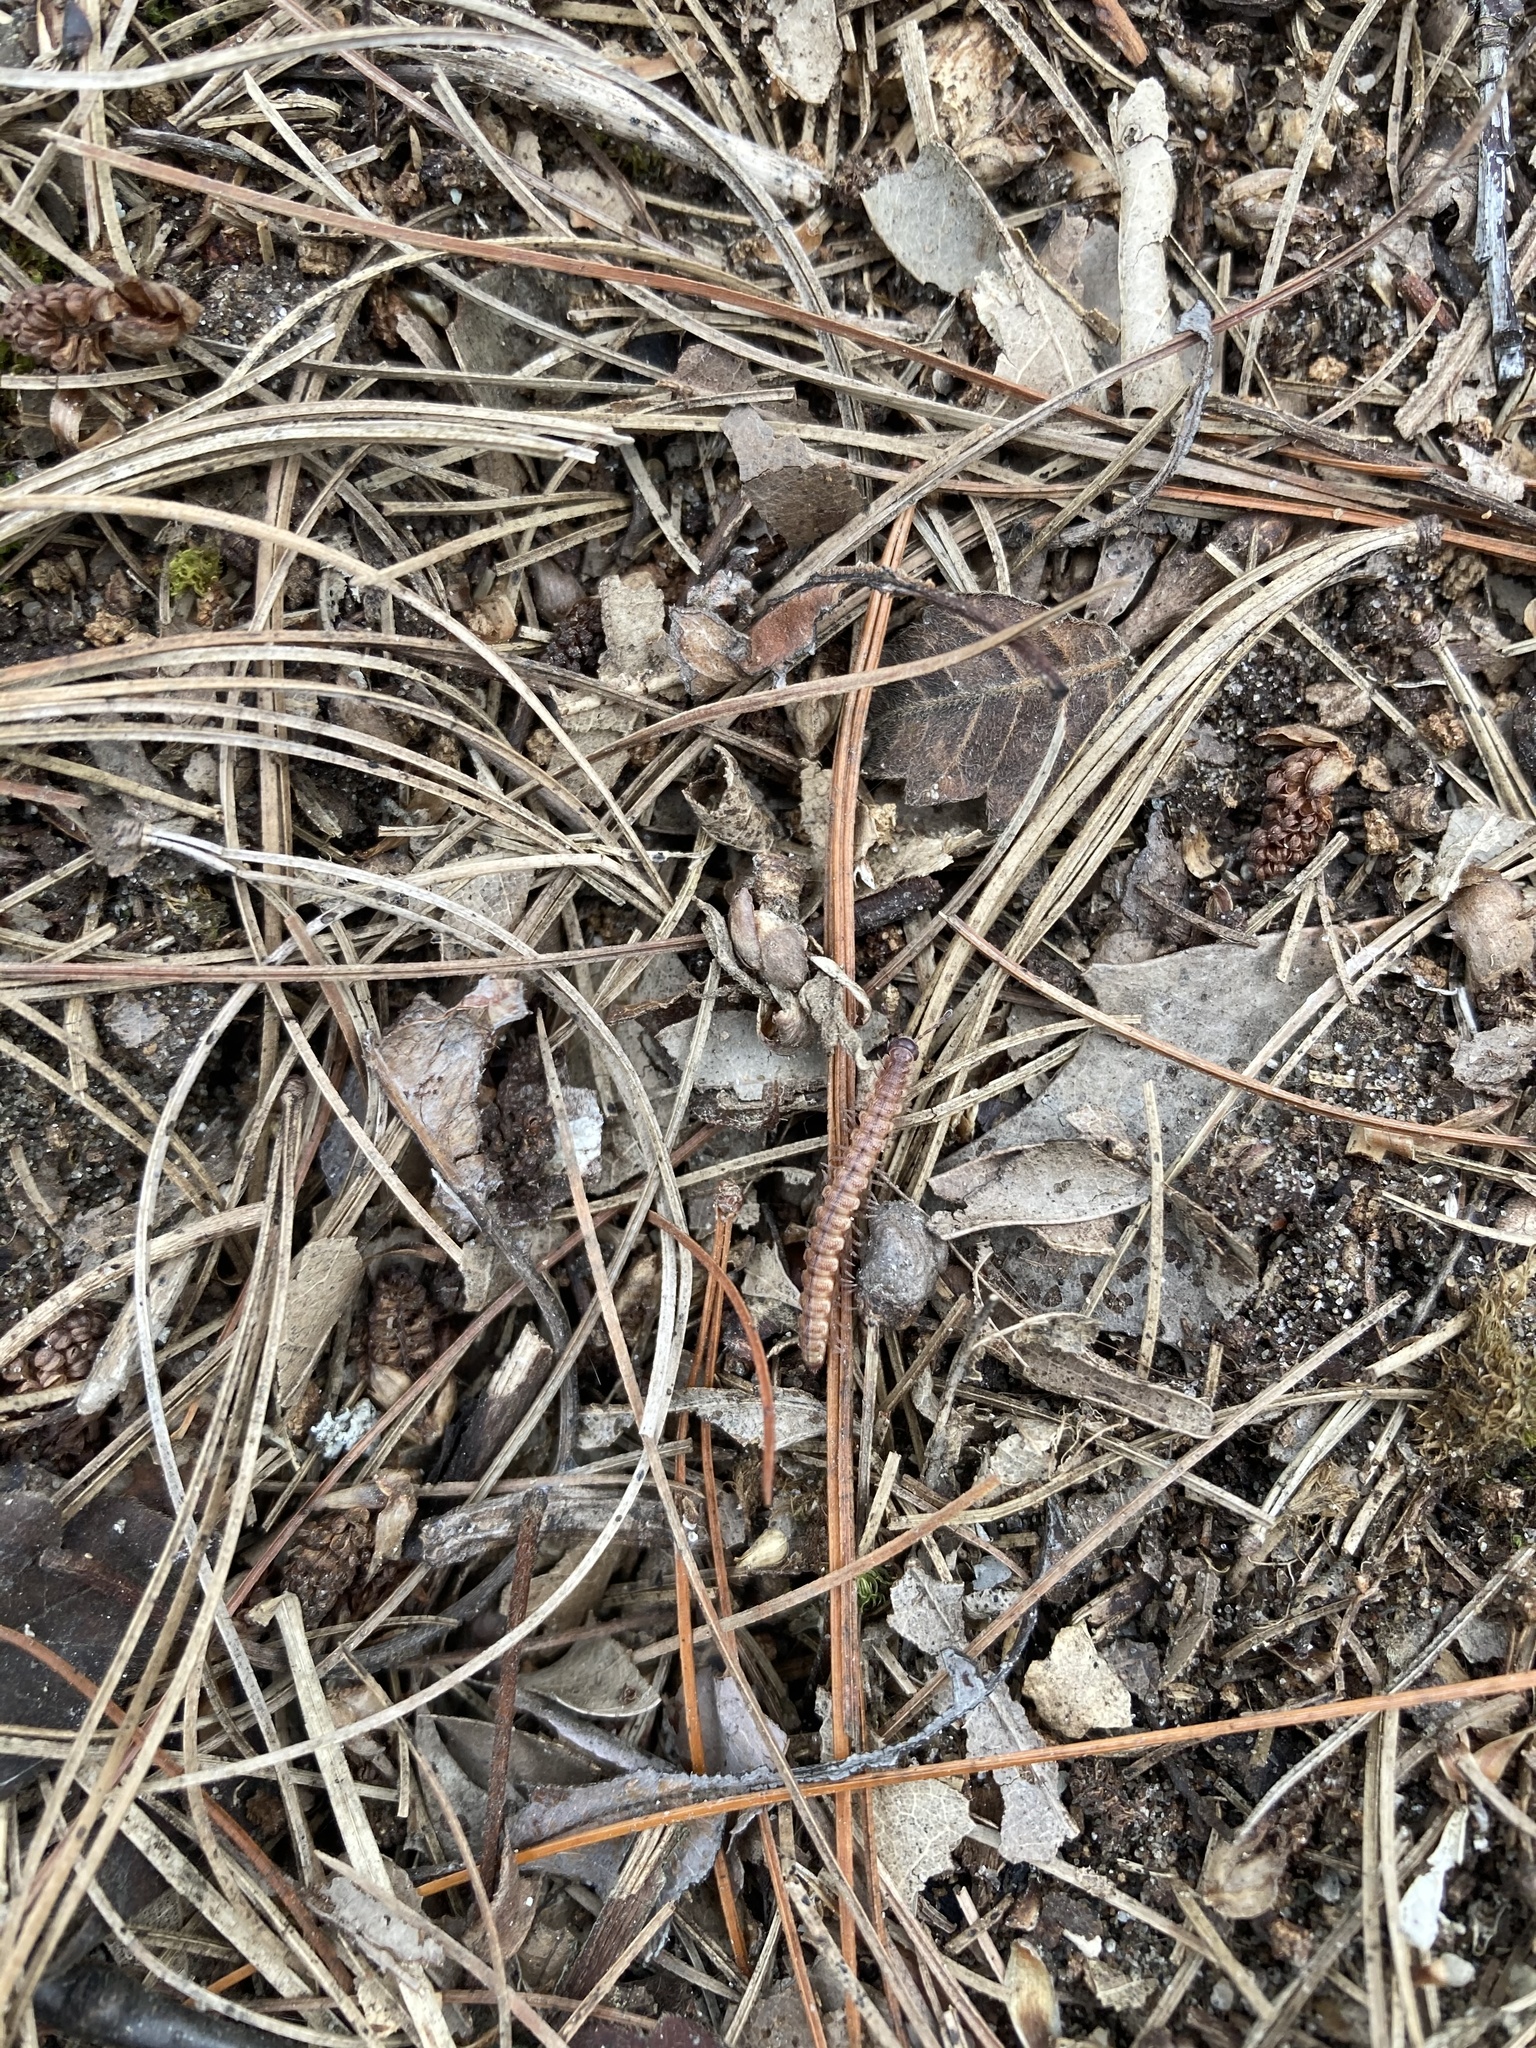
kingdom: Animalia
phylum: Arthropoda
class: Diplopoda
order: Polydesmida
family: Polydesmidae
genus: Scytonotus
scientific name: Scytonotus granulatus
